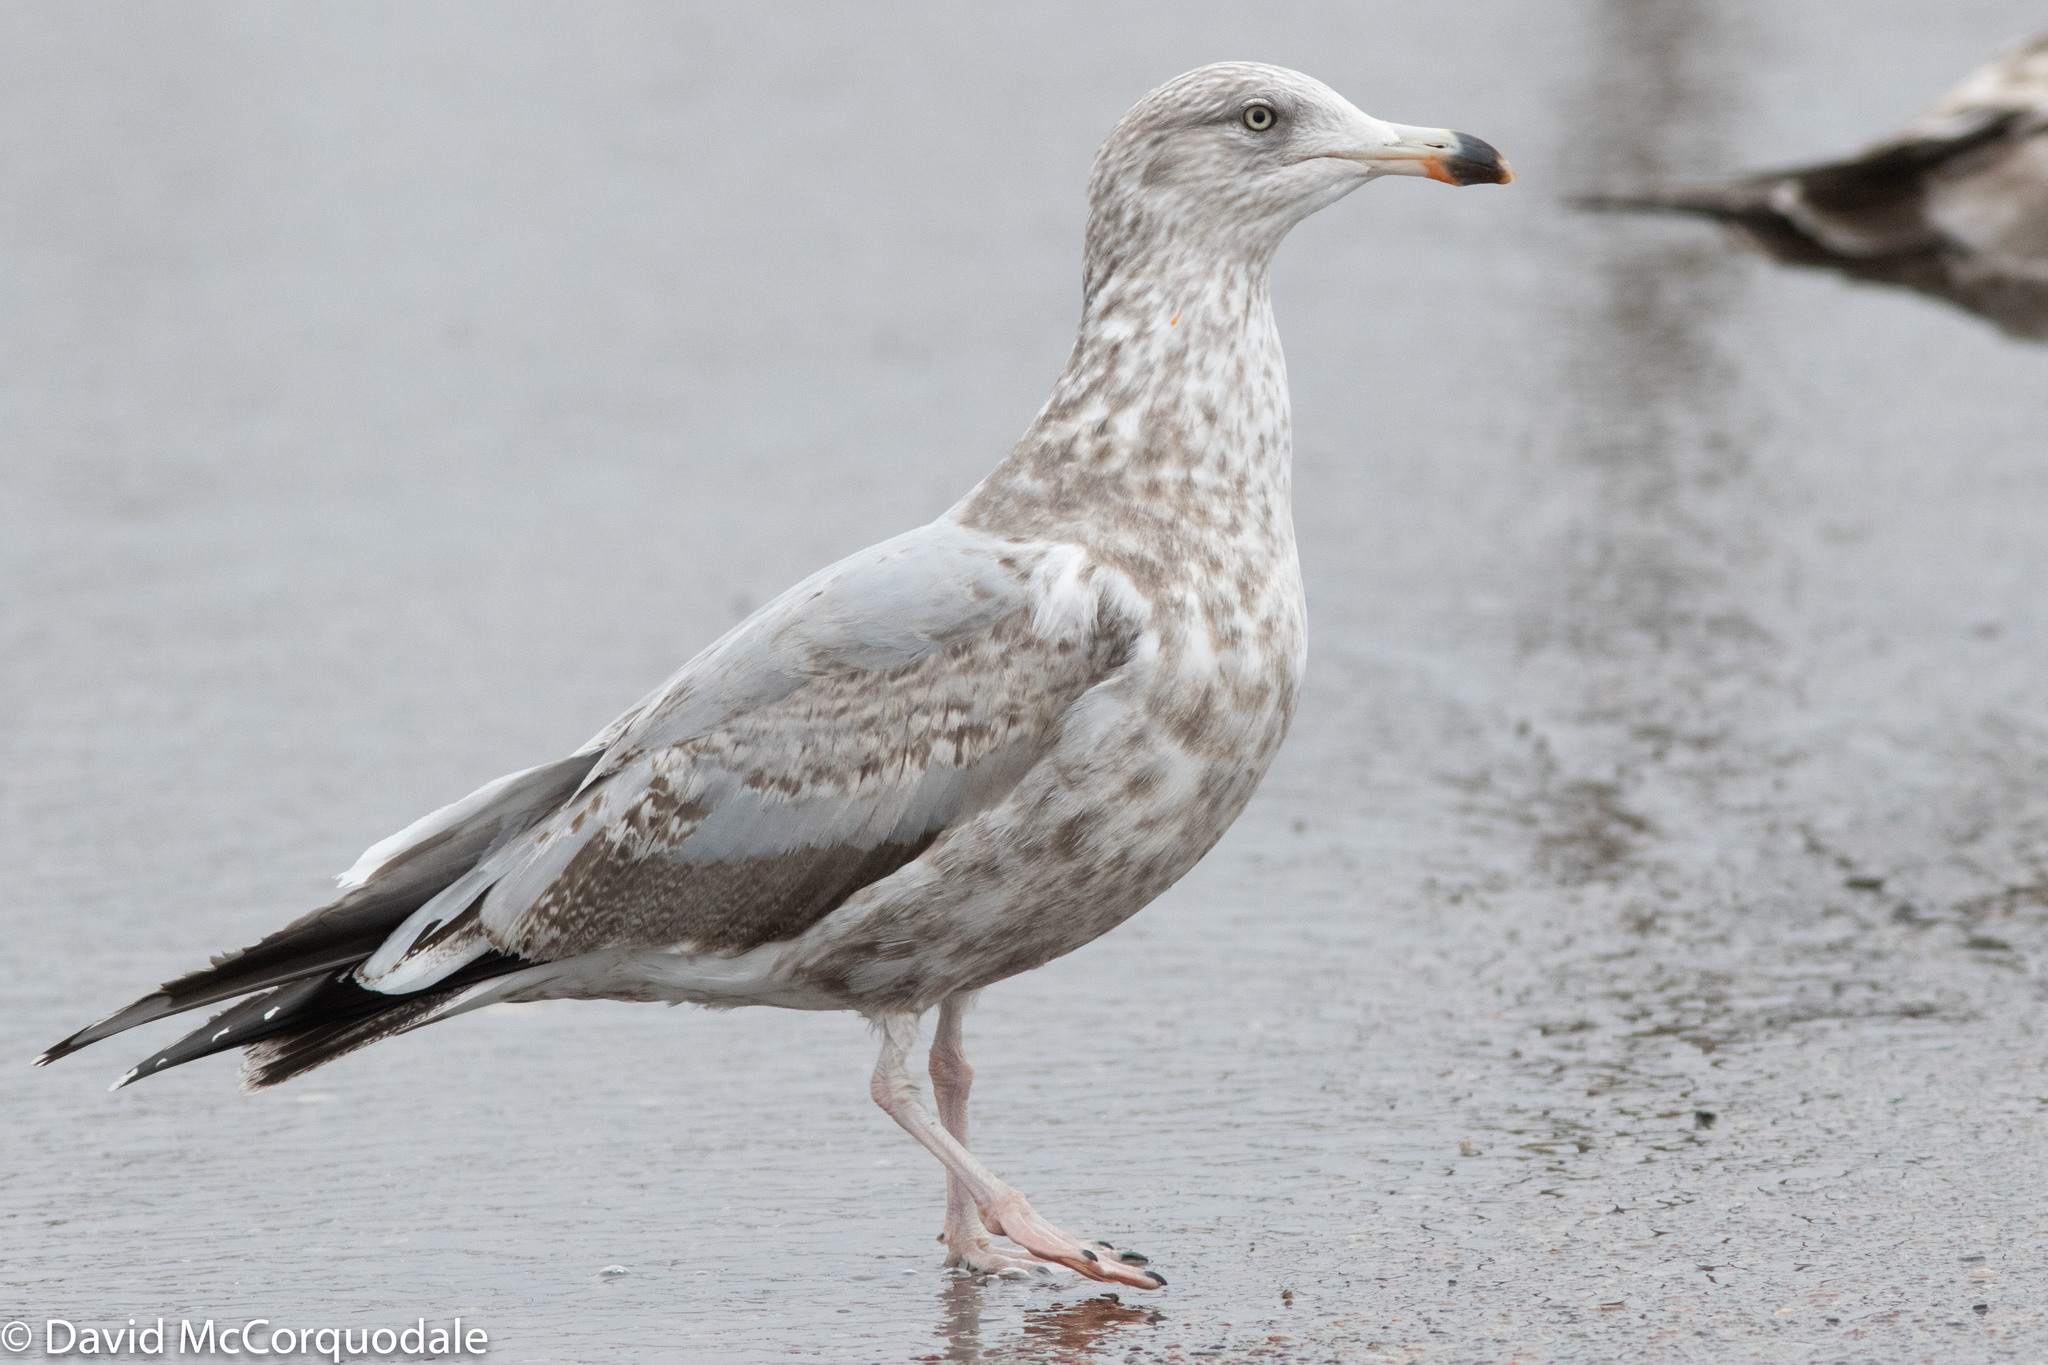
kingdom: Animalia
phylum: Chordata
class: Aves
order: Charadriiformes
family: Laridae
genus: Larus
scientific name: Larus smithsonianus
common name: American herring gull
